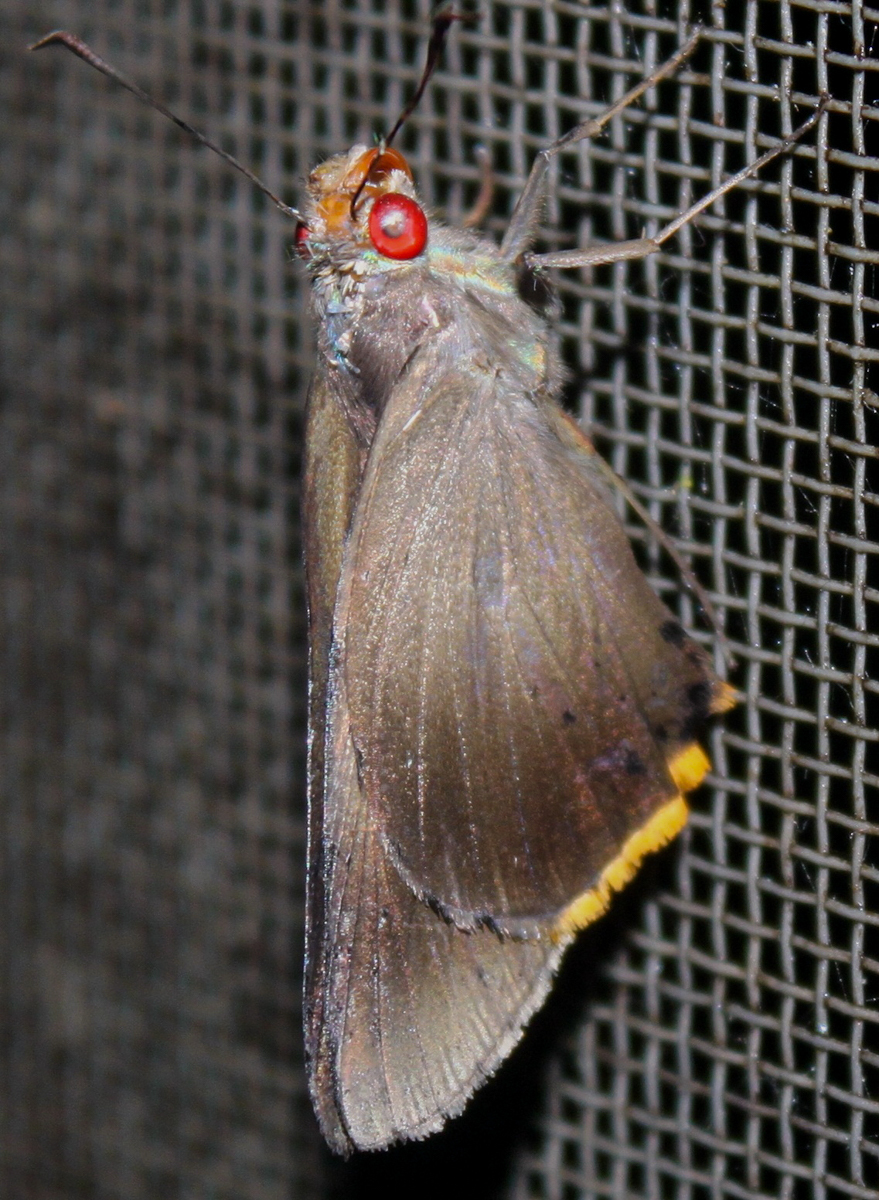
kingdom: Animalia
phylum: Arthropoda
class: Insecta
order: Lepidoptera
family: Hesperiidae
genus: Matapa
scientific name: Matapa cresta
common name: Fringed redeye
